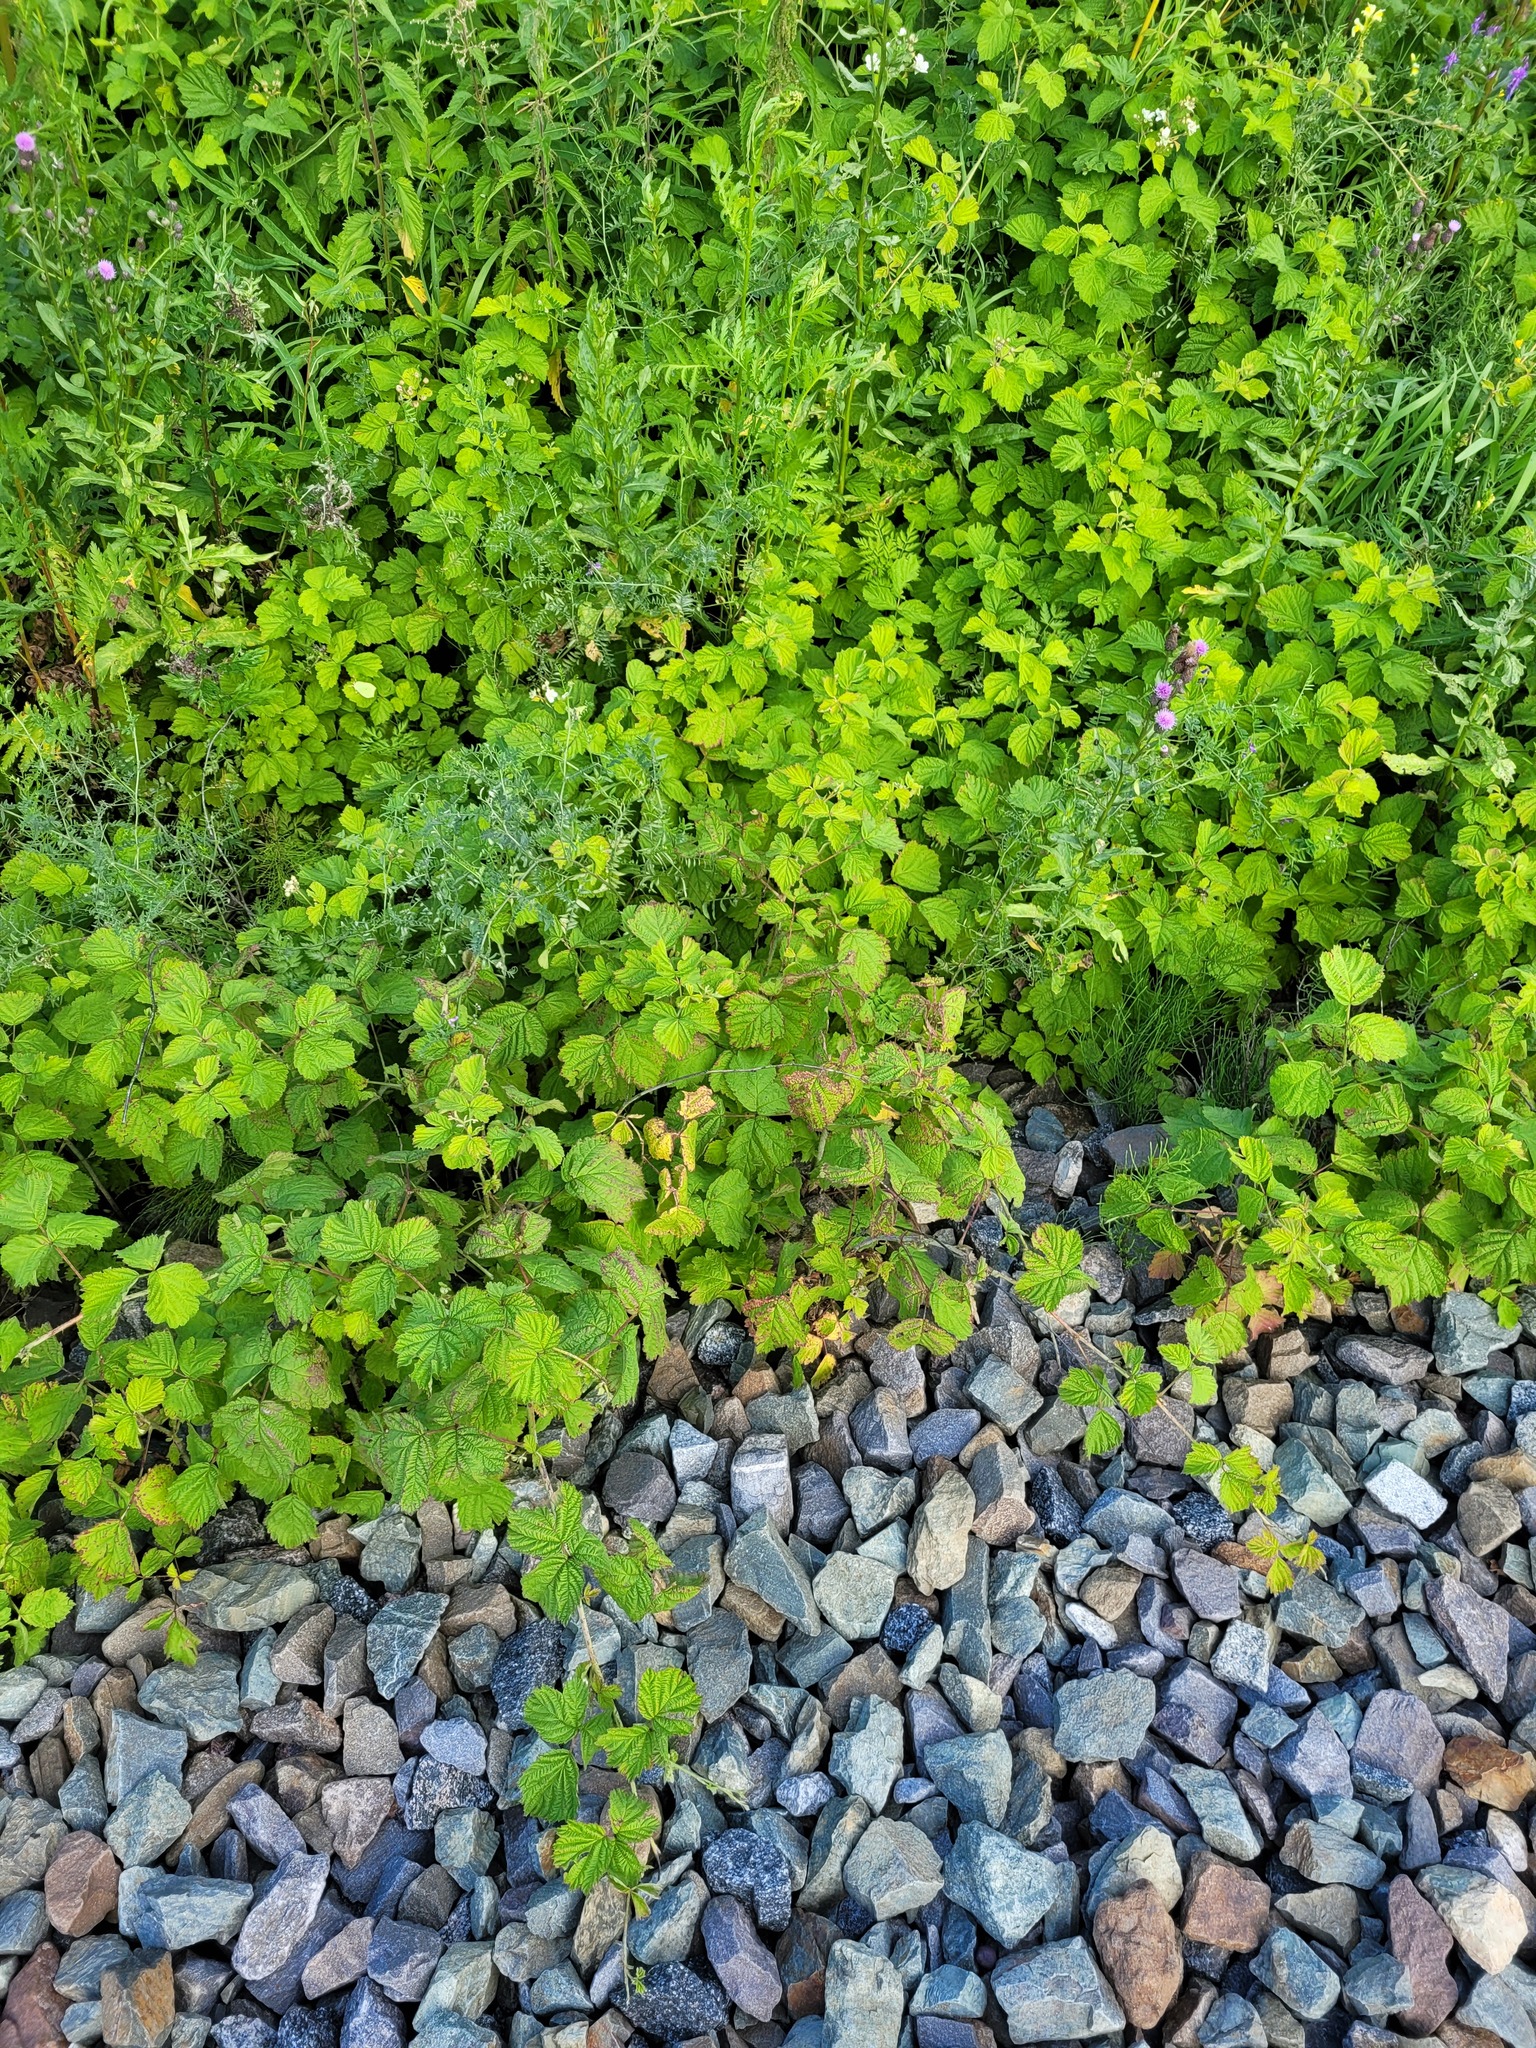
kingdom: Plantae
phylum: Tracheophyta
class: Magnoliopsida
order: Rosales
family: Rosaceae
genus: Rubus
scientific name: Rubus caesius
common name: Dewberry
